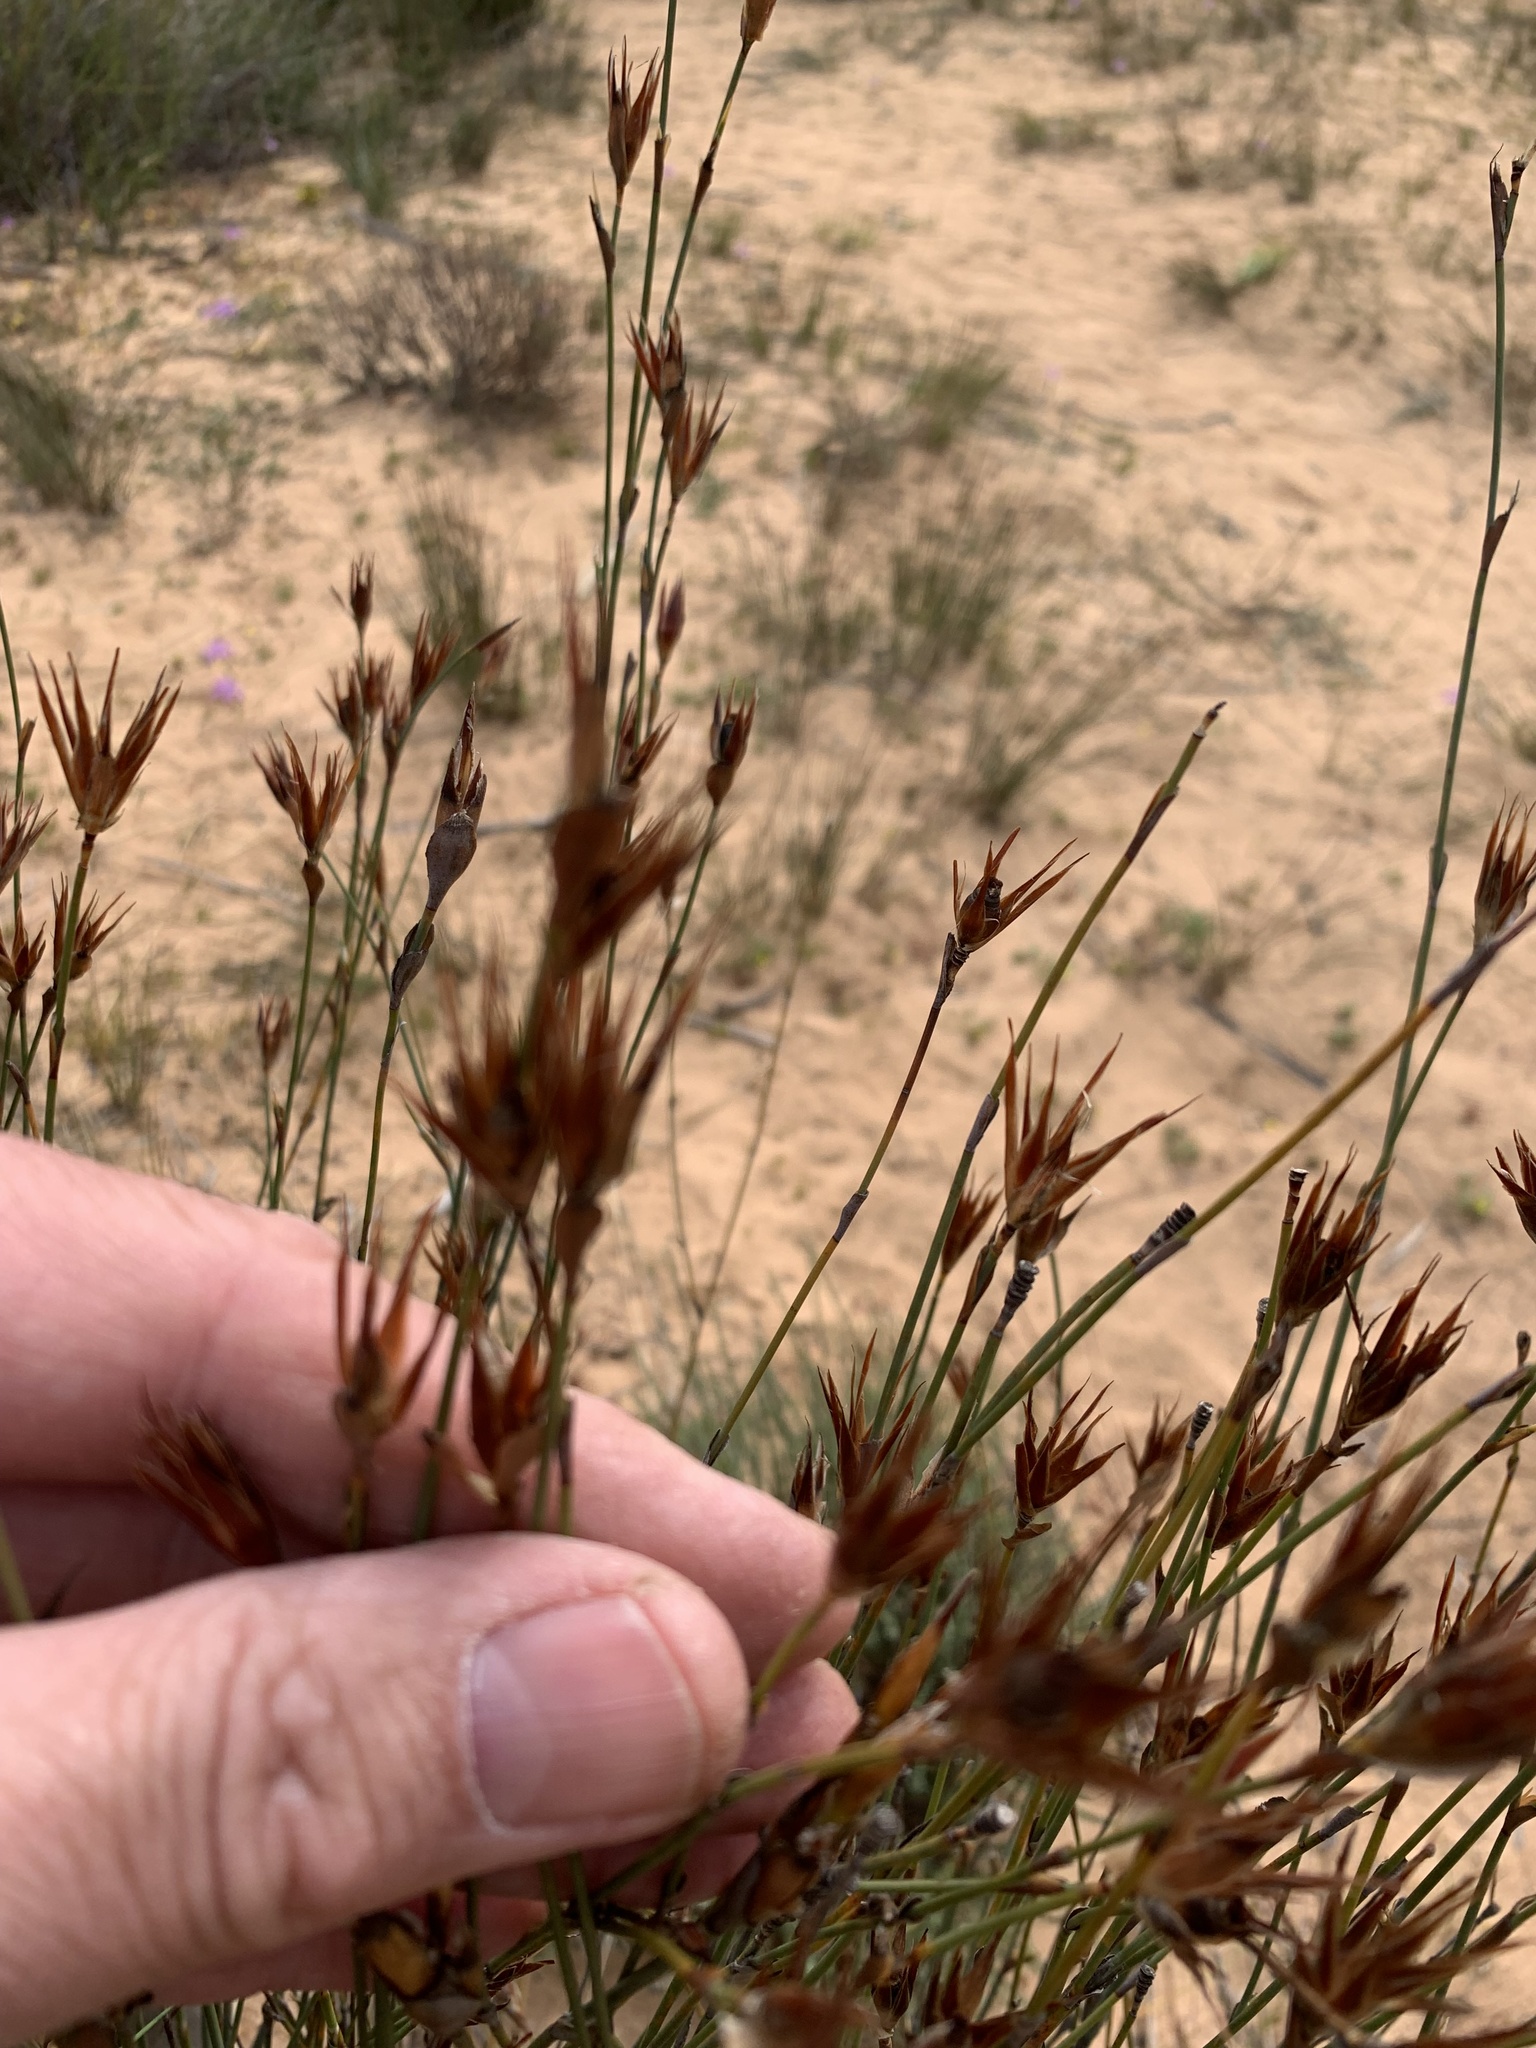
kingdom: Plantae
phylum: Tracheophyta
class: Liliopsida
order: Poales
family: Restionaceae
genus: Willdenowia
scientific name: Willdenowia incurvata
